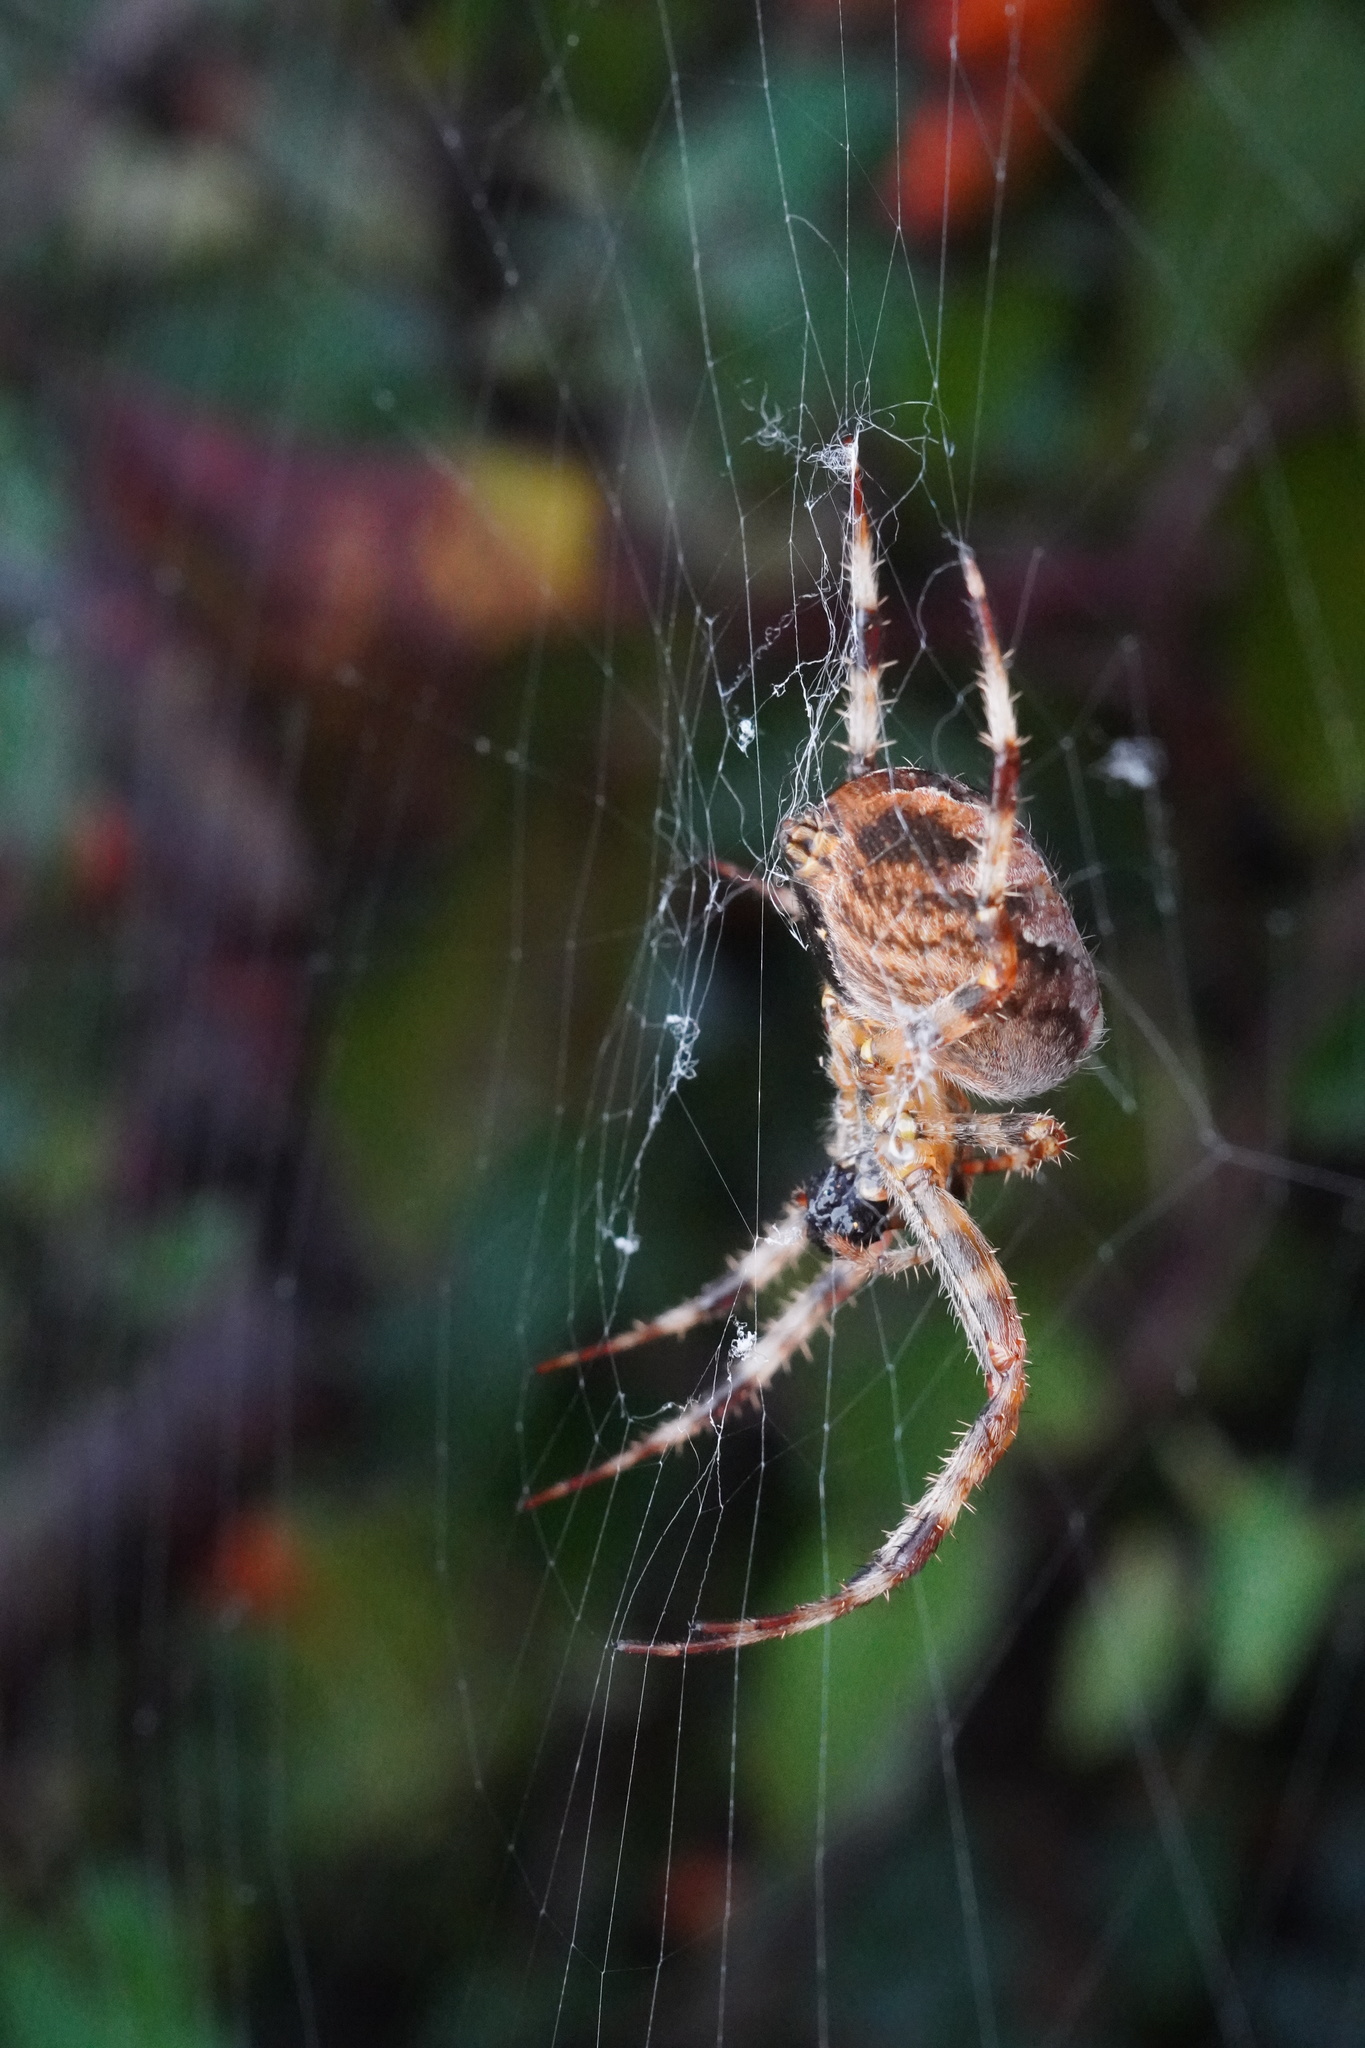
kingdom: Animalia
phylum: Arthropoda
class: Arachnida
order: Araneae
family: Araneidae
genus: Araneus
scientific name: Araneus diadematus
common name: Cross orbweaver
